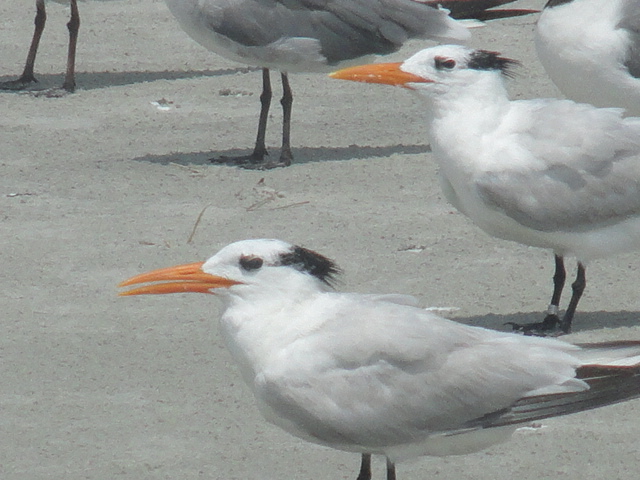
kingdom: Animalia
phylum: Chordata
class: Aves
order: Charadriiformes
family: Laridae
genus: Thalasseus
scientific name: Thalasseus maximus
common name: Royal tern
